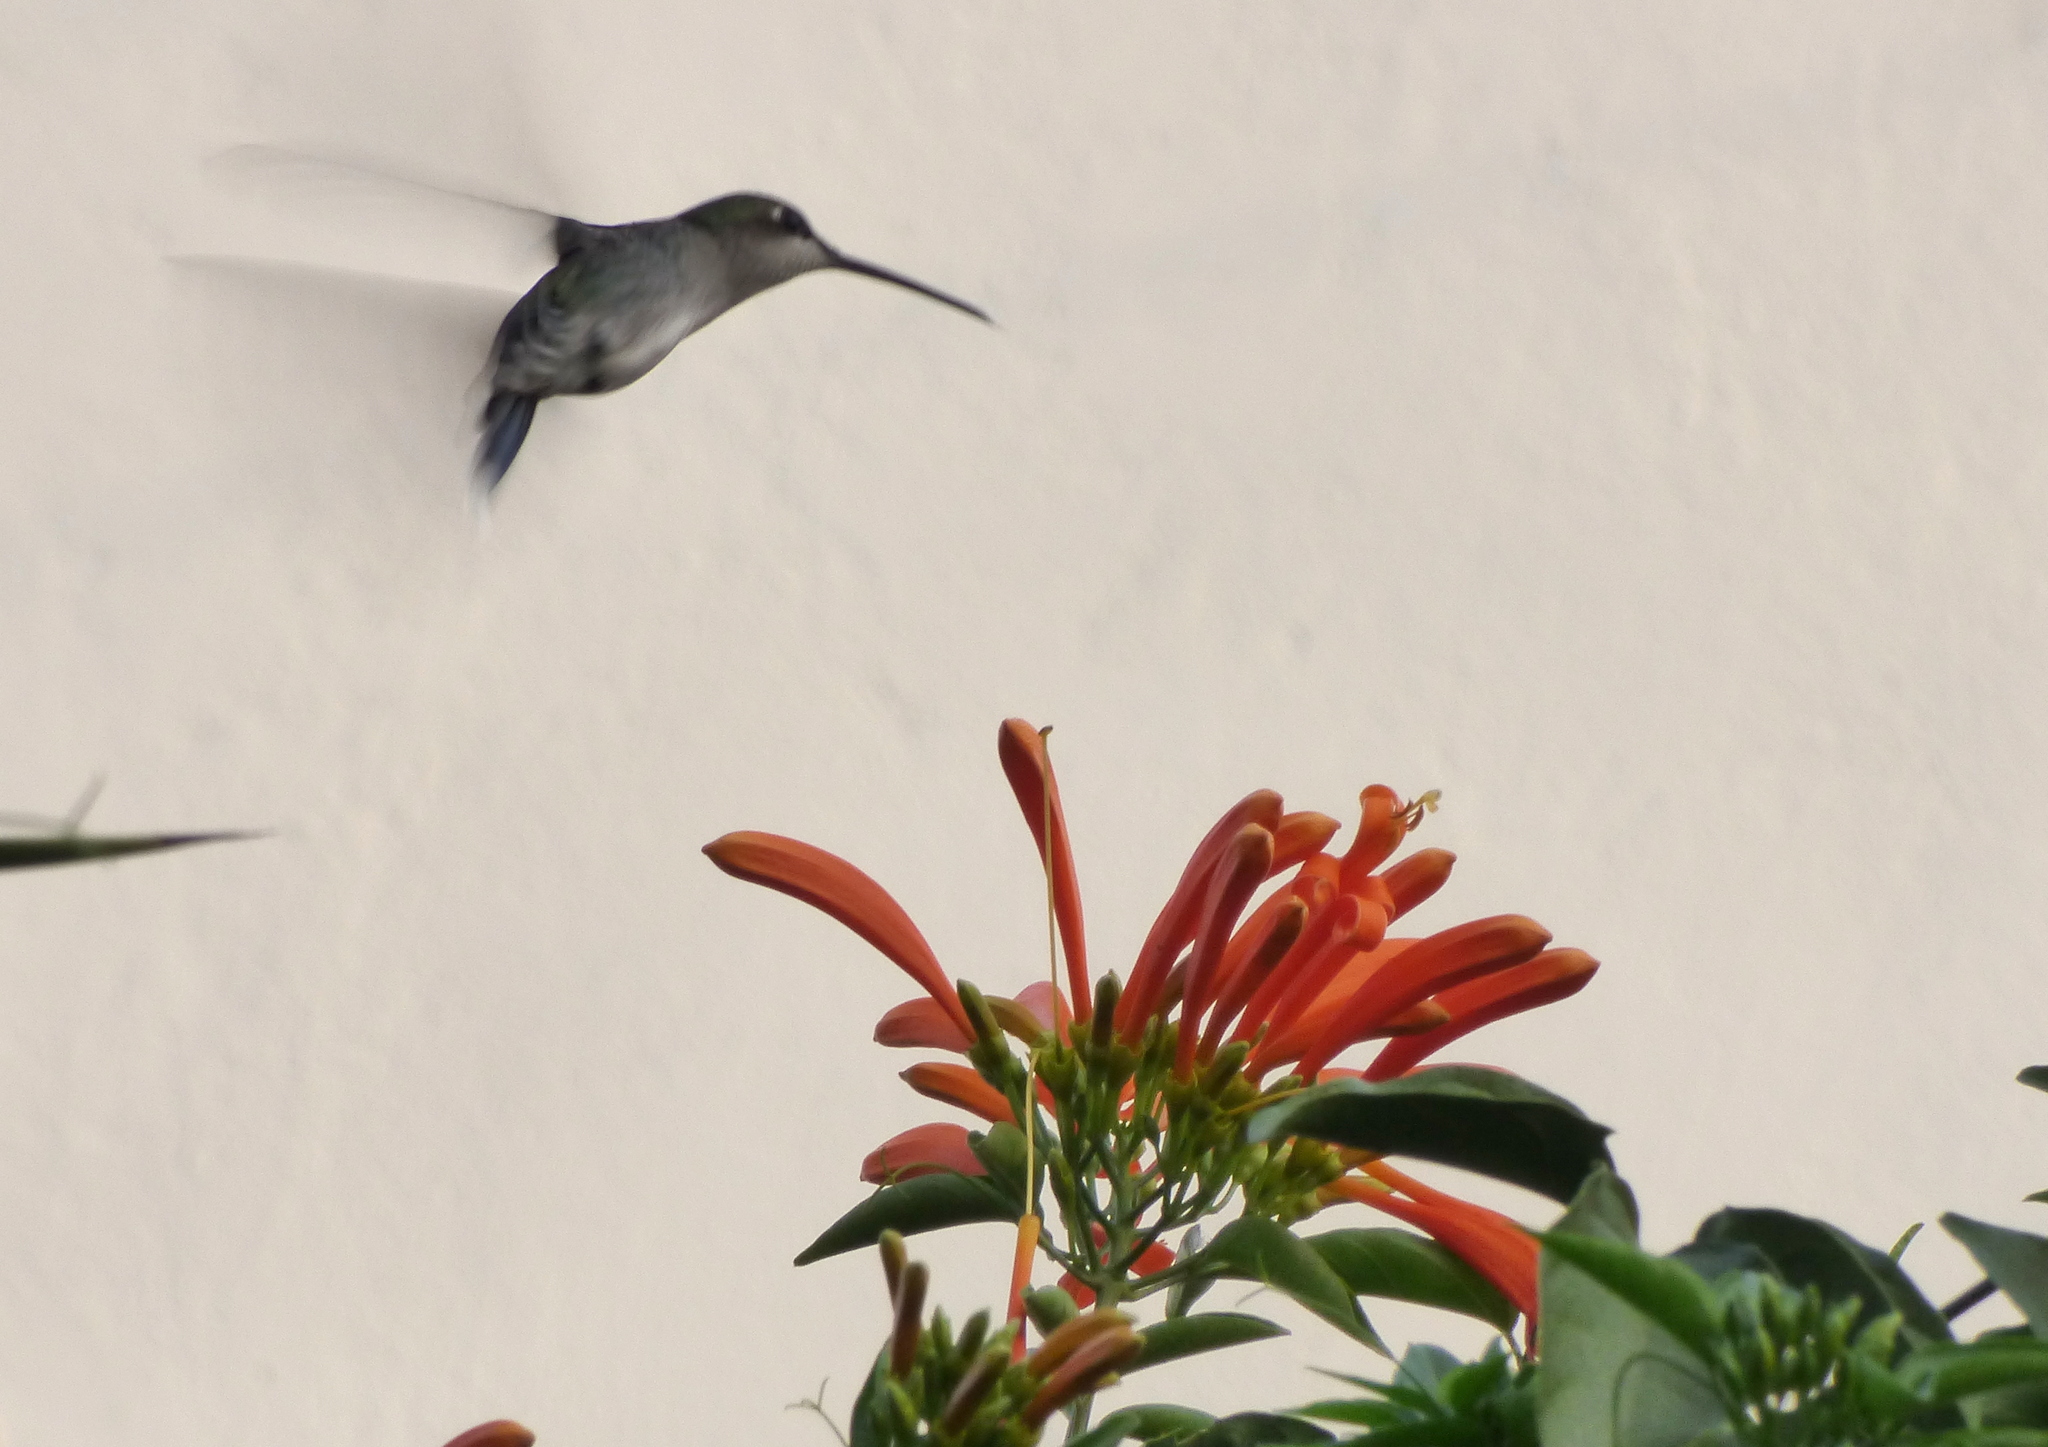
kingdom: Animalia
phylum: Chordata
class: Aves
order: Apodiformes
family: Trochilidae
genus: Heliomaster
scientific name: Heliomaster furcifer
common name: Blue-tufted starthroat
